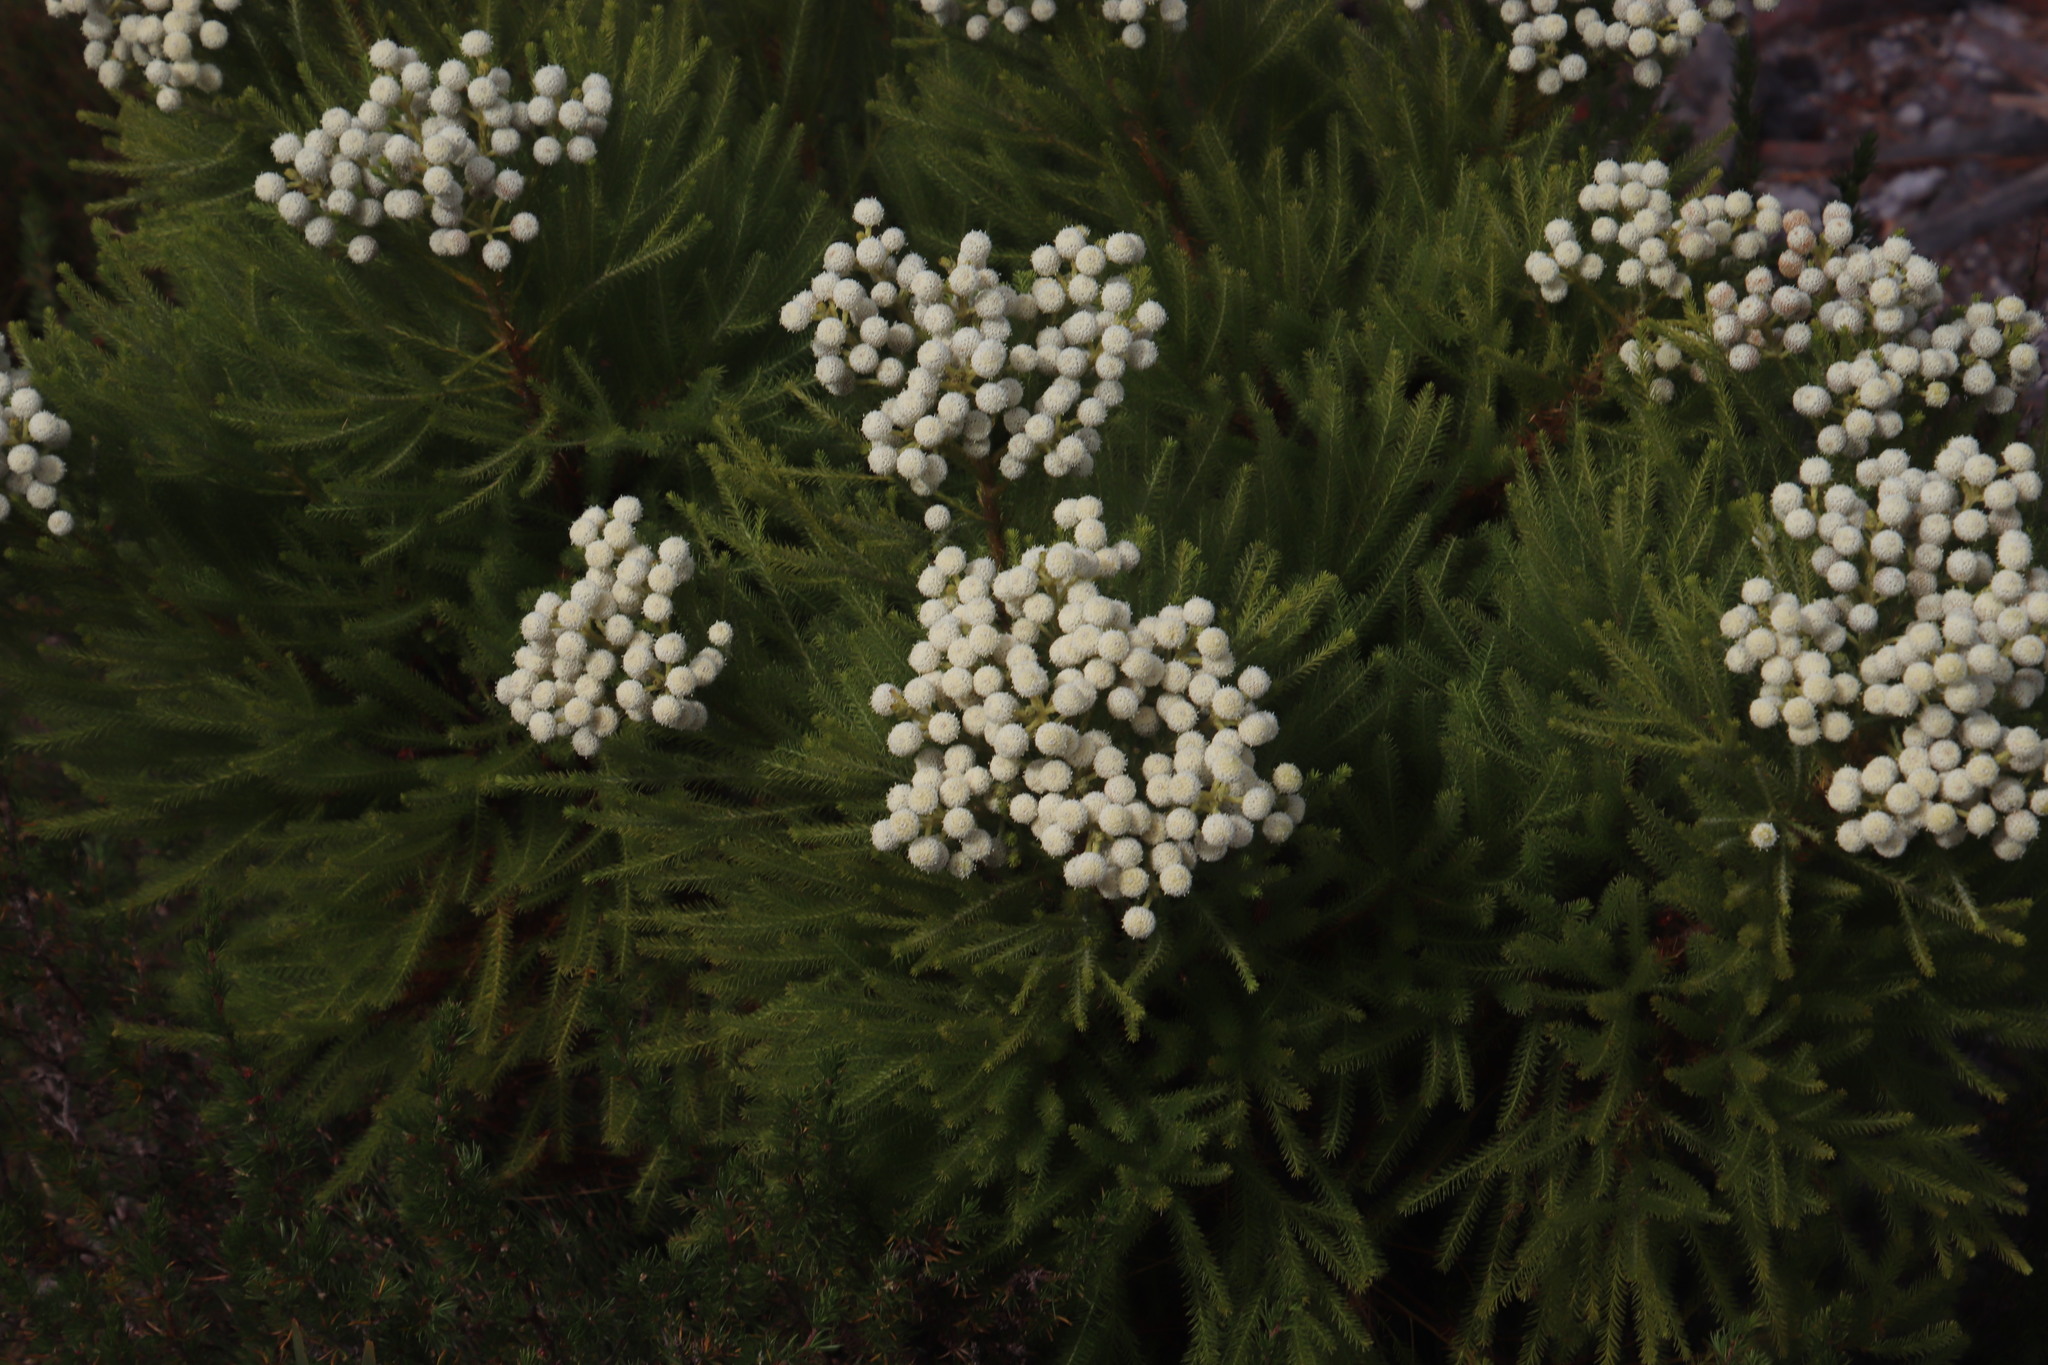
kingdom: Plantae
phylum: Tracheophyta
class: Magnoliopsida
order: Bruniales
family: Bruniaceae
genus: Berzelia
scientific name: Berzelia lanuginosa
